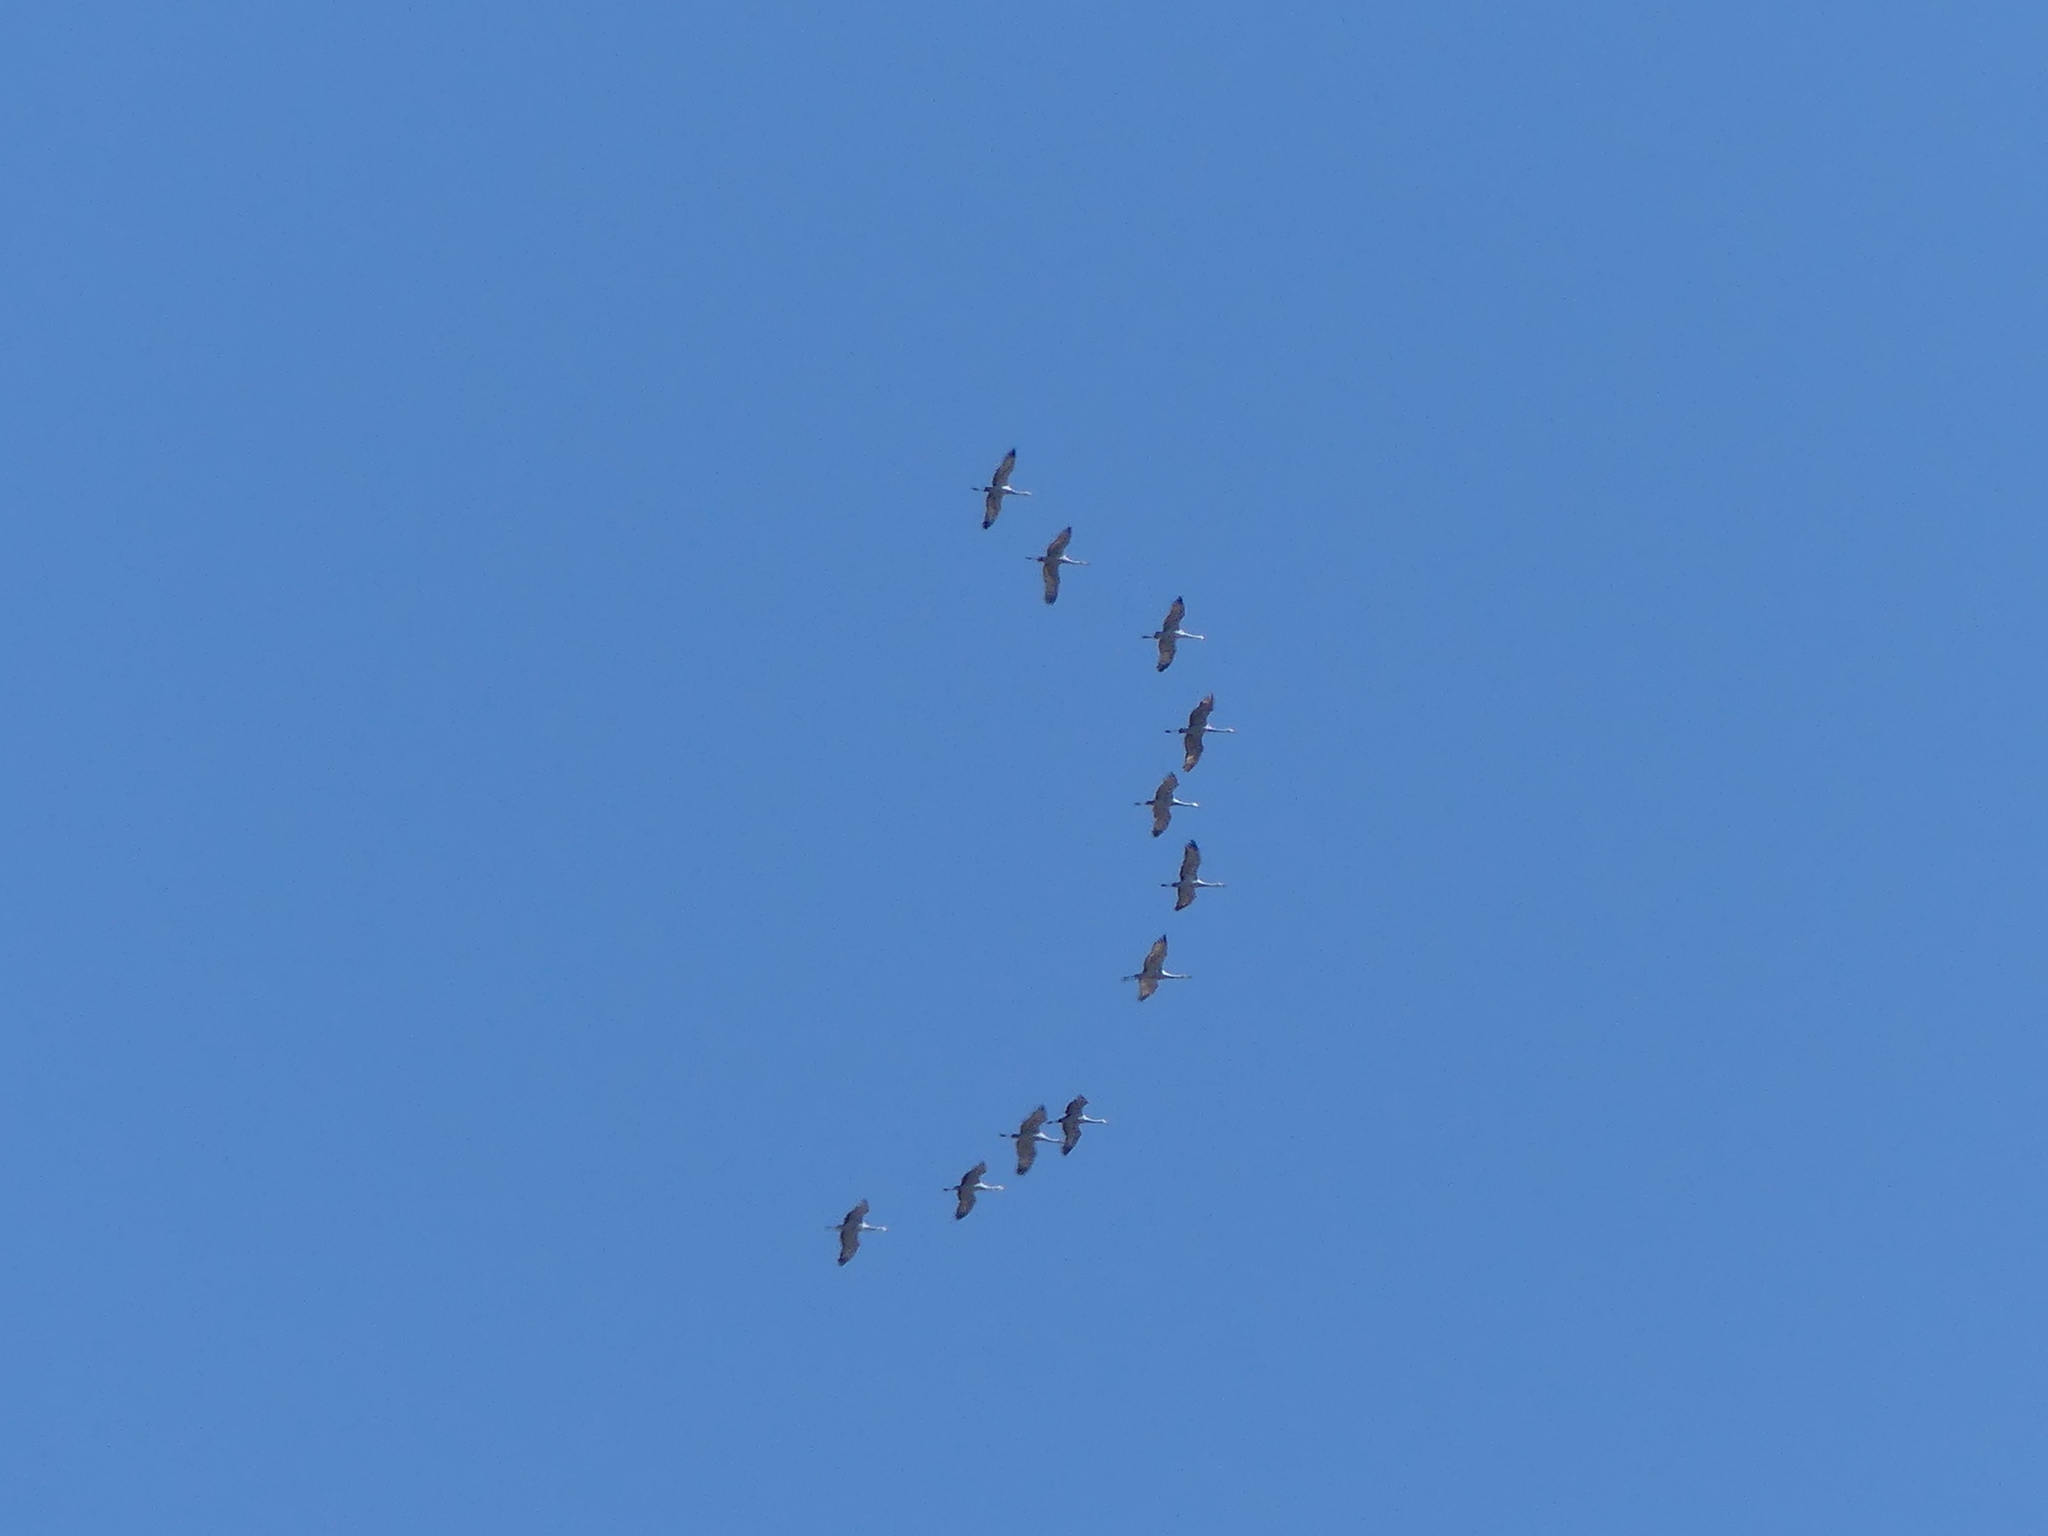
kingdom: Animalia
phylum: Chordata
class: Aves
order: Gruiformes
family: Gruidae
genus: Grus
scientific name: Grus canadensis
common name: Sandhill crane
